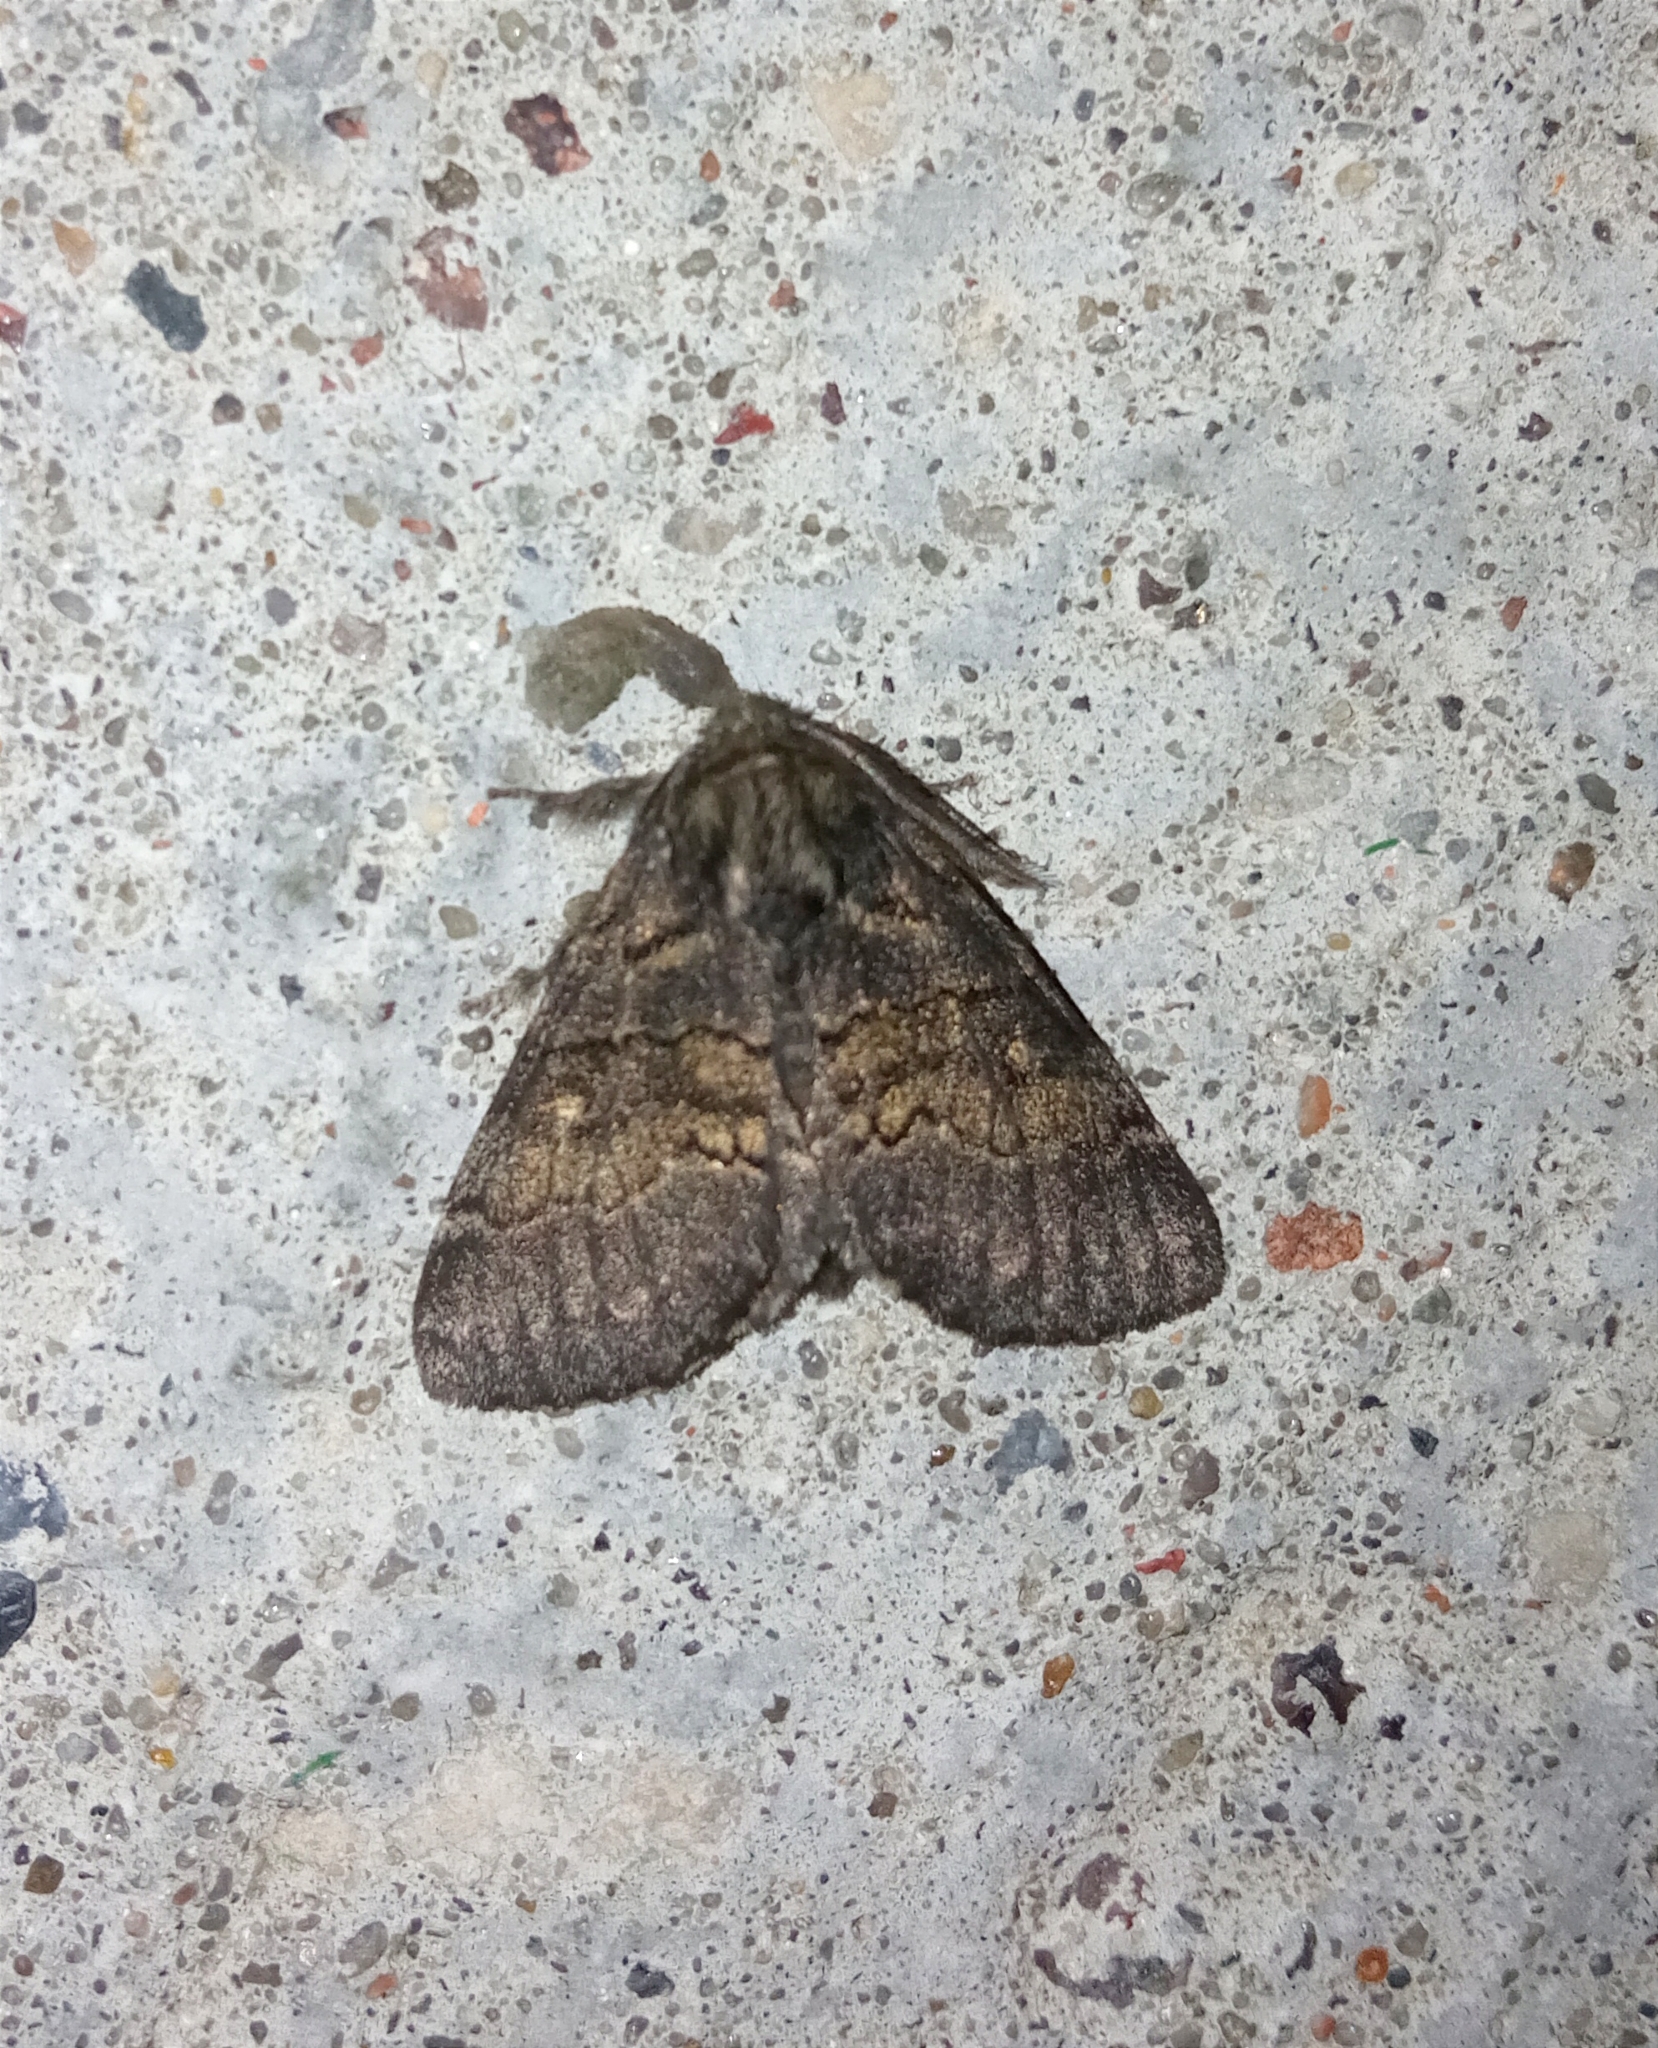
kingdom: Animalia
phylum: Arthropoda
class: Insecta
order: Lepidoptera
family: Notodontidae
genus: Gluphisia
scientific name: Gluphisia crenata
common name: Dusky marbled brown
